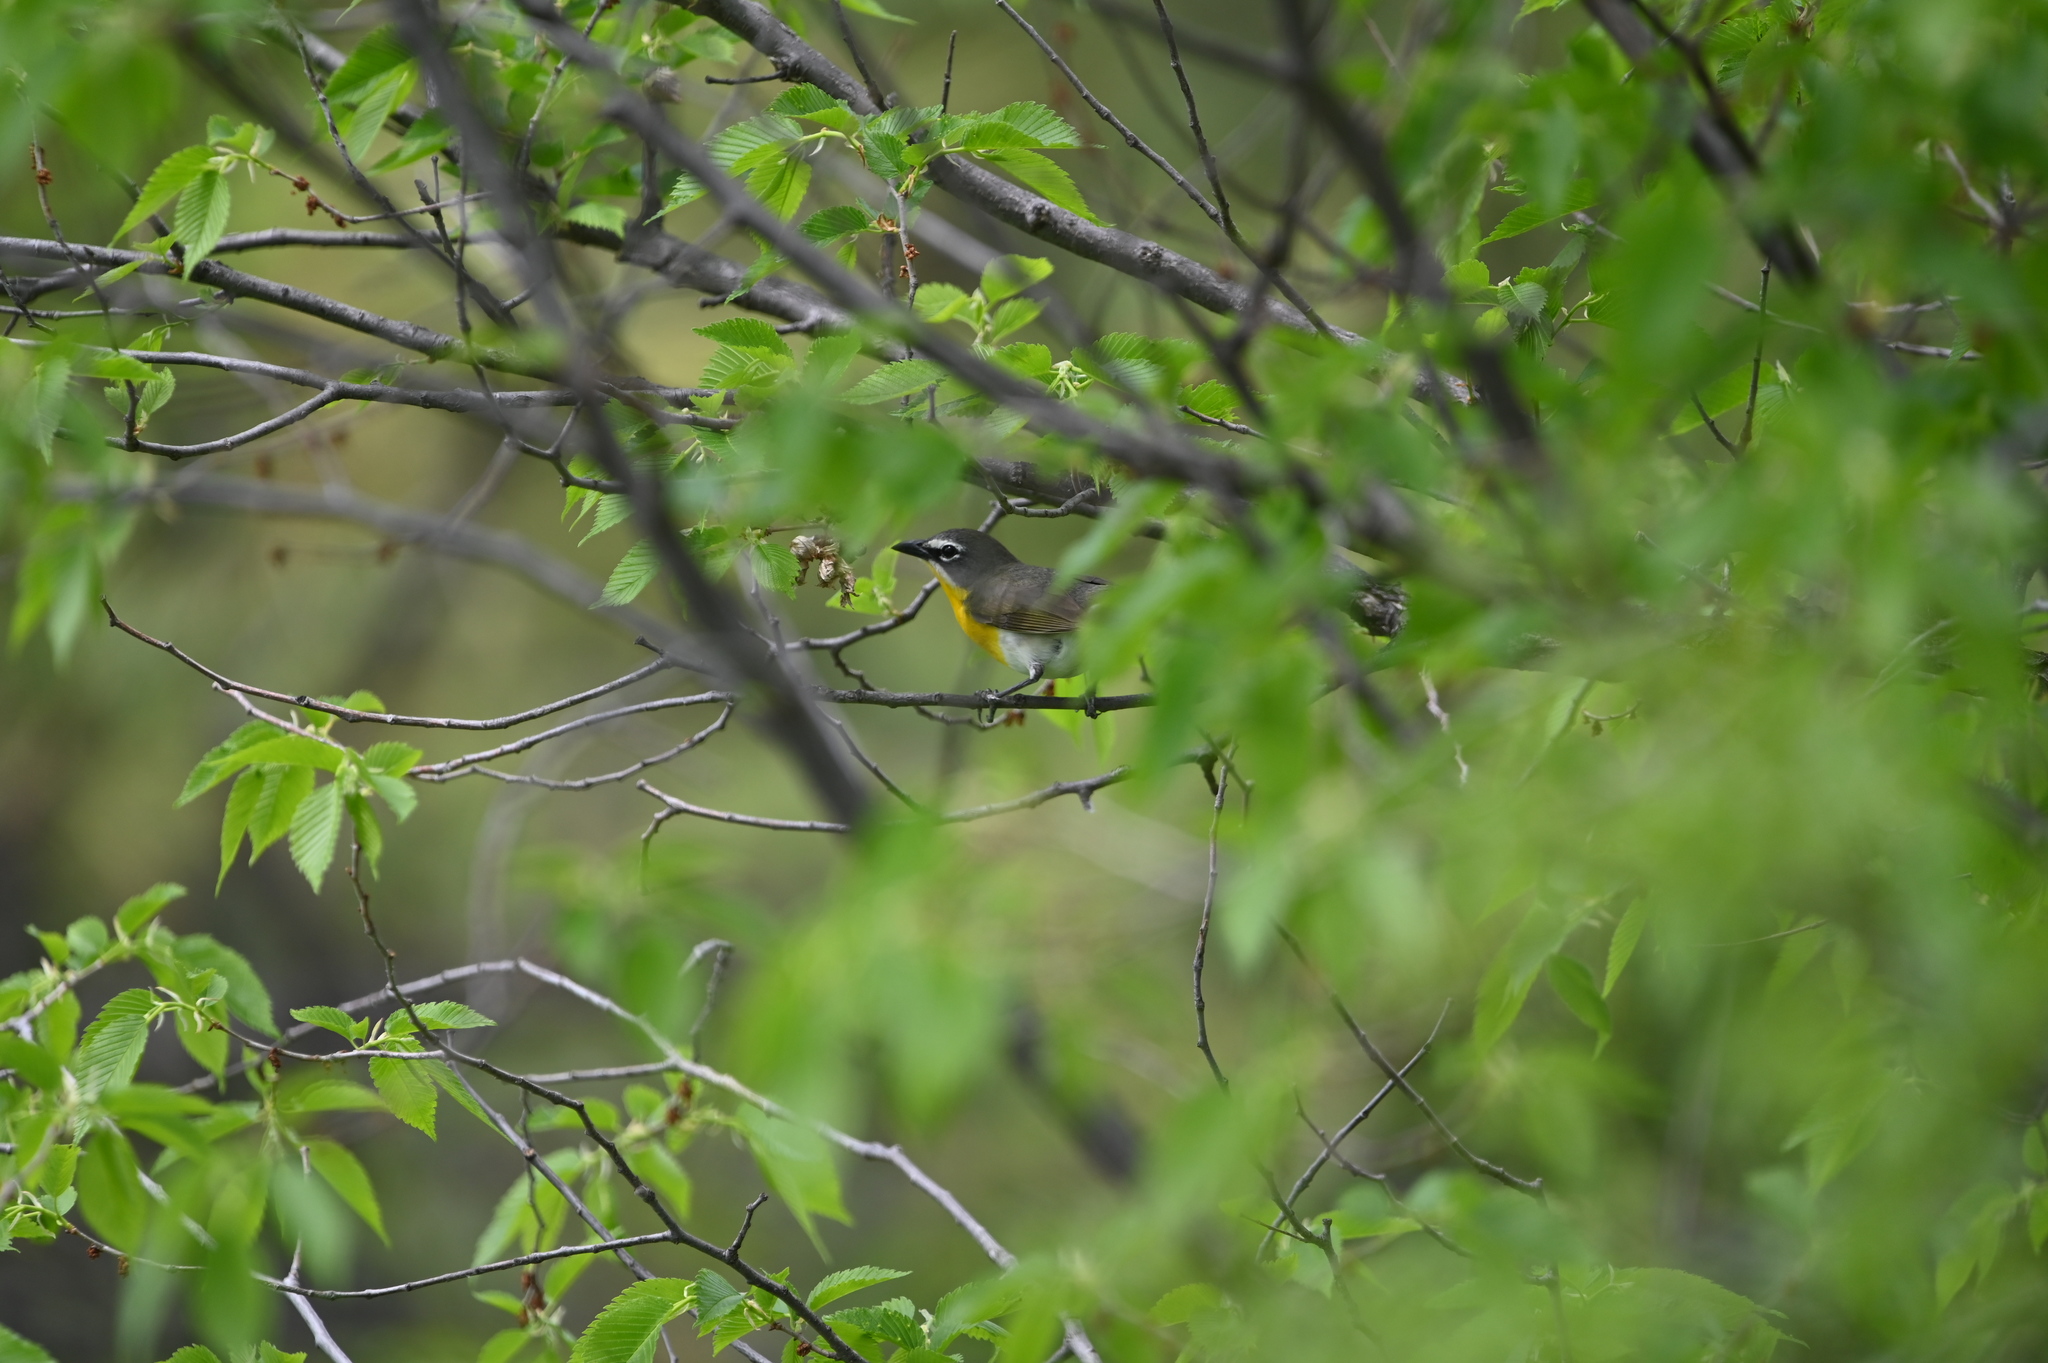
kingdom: Animalia
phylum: Chordata
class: Aves
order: Passeriformes
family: Parulidae
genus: Icteria
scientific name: Icteria virens
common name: Yellow-breasted chat
